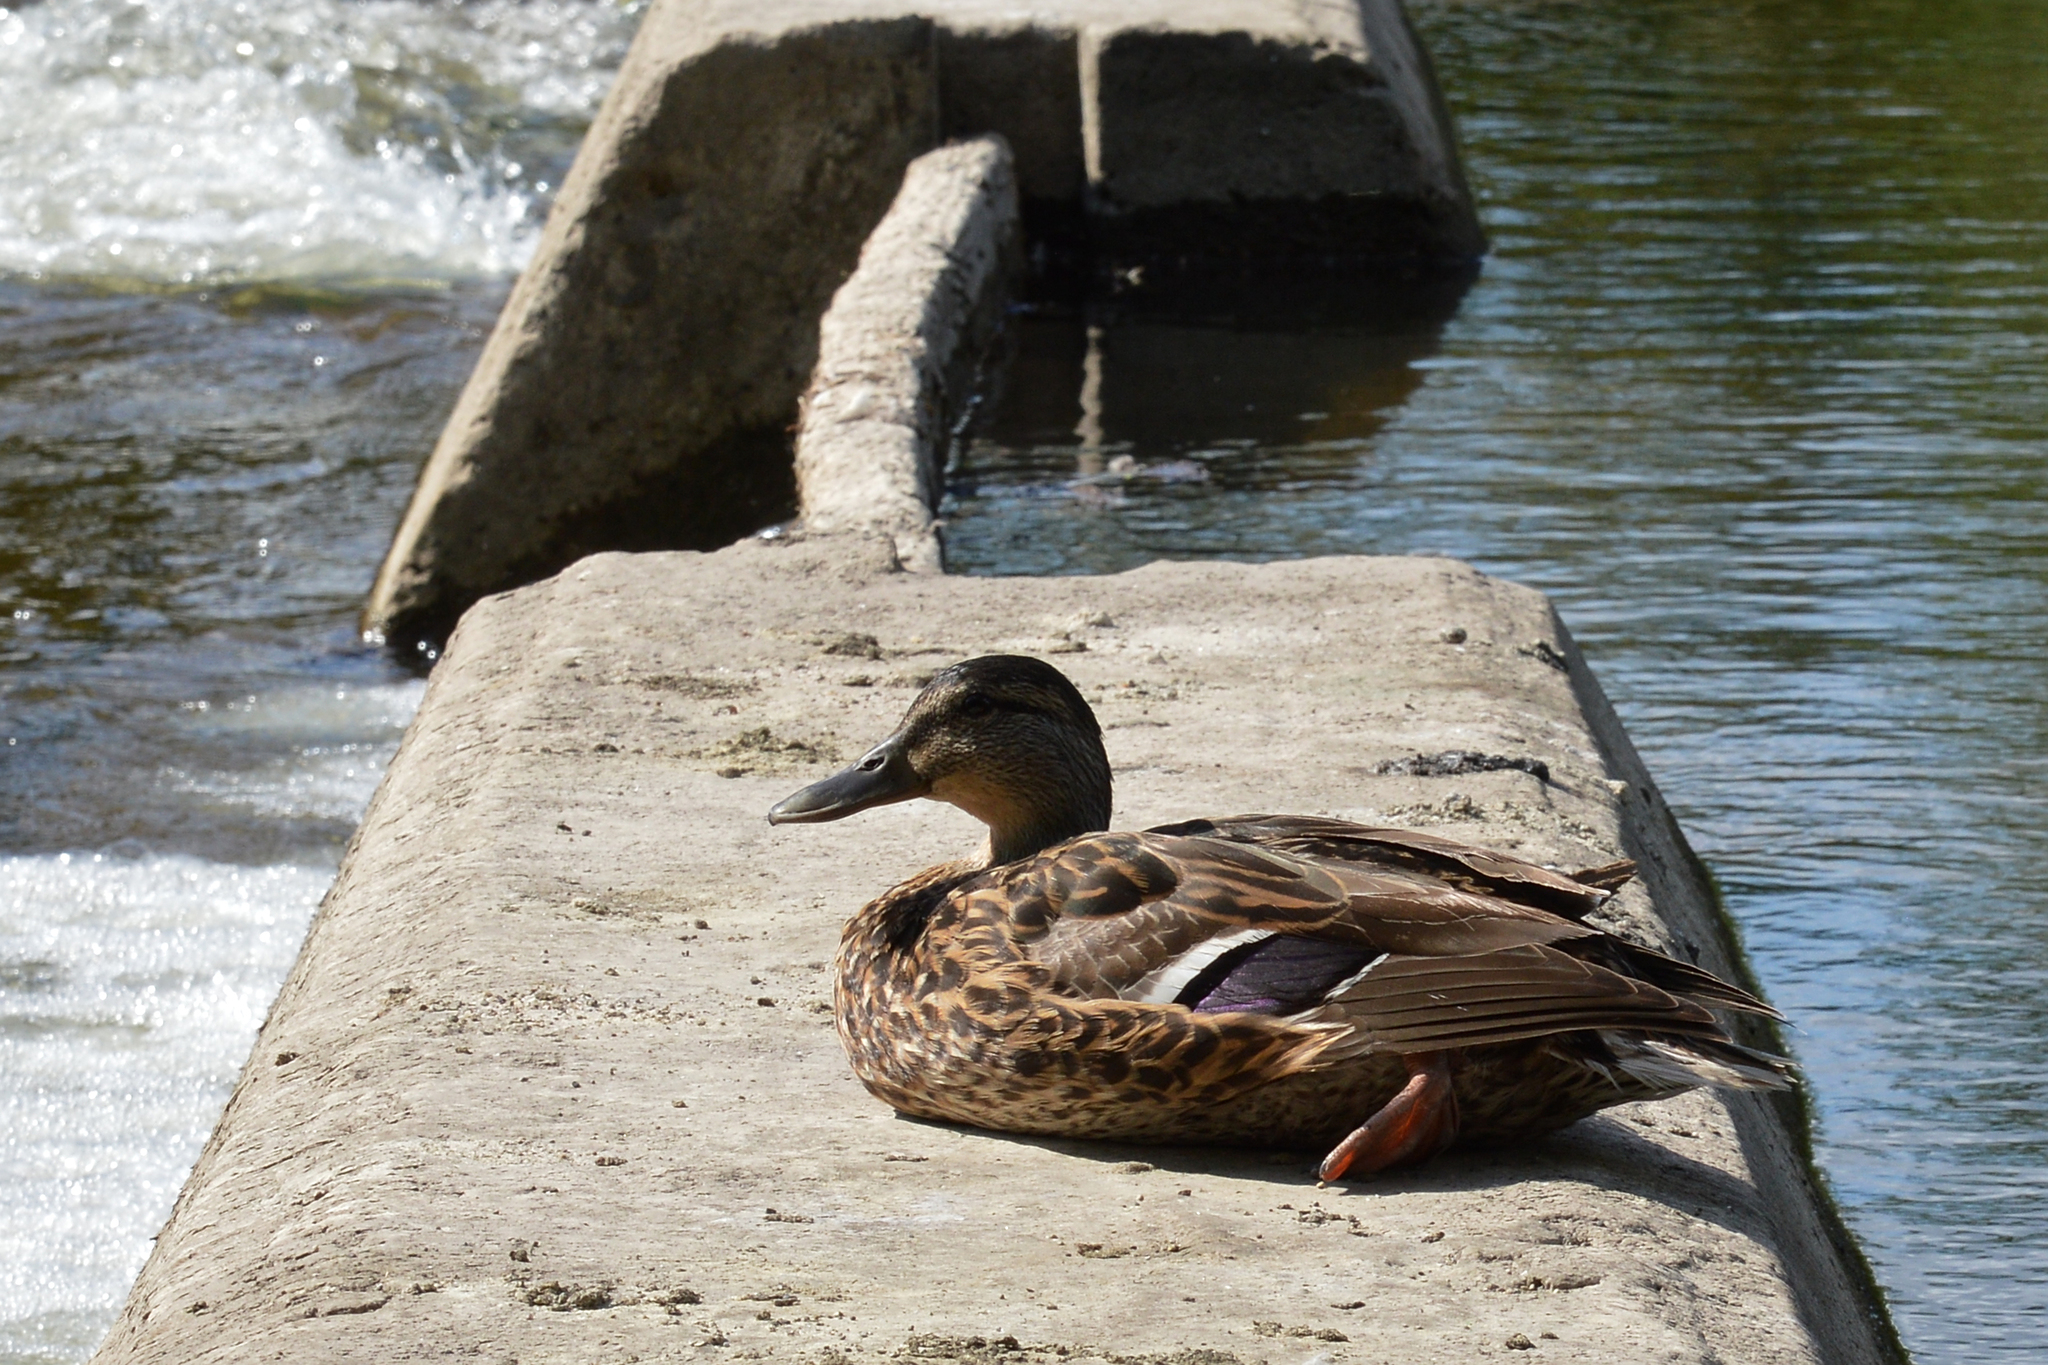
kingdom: Animalia
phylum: Chordata
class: Aves
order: Anseriformes
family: Anatidae
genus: Anas
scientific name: Anas platyrhynchos
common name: Mallard
